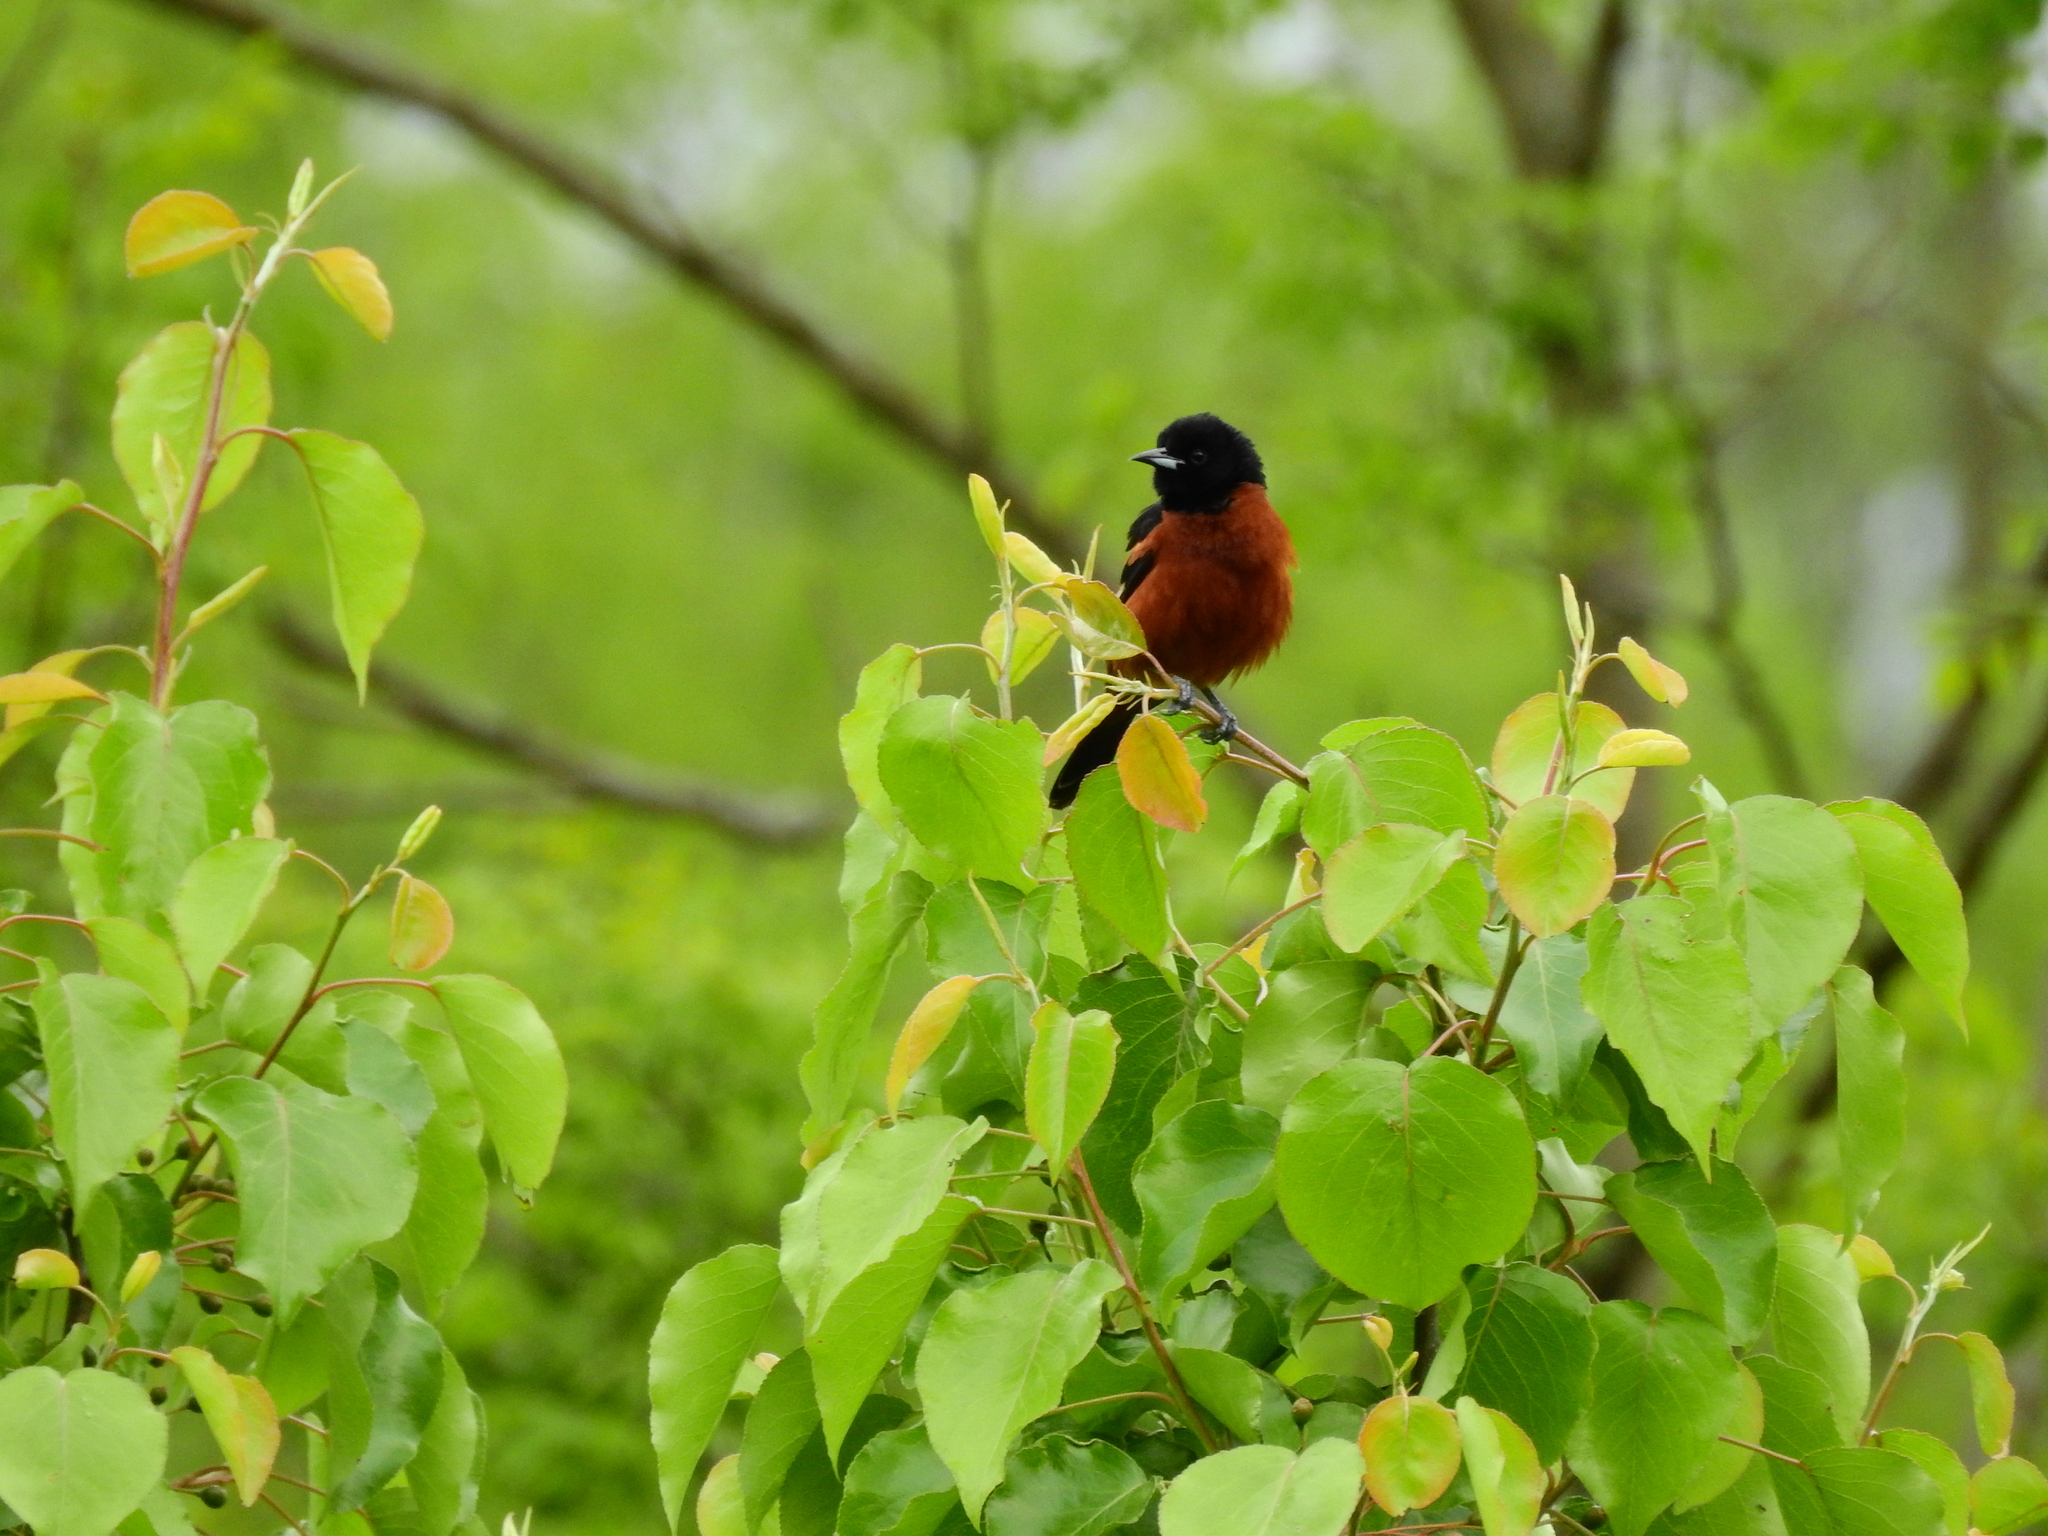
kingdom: Animalia
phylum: Chordata
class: Aves
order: Passeriformes
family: Icteridae
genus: Icterus
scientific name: Icterus spurius
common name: Orchard oriole
